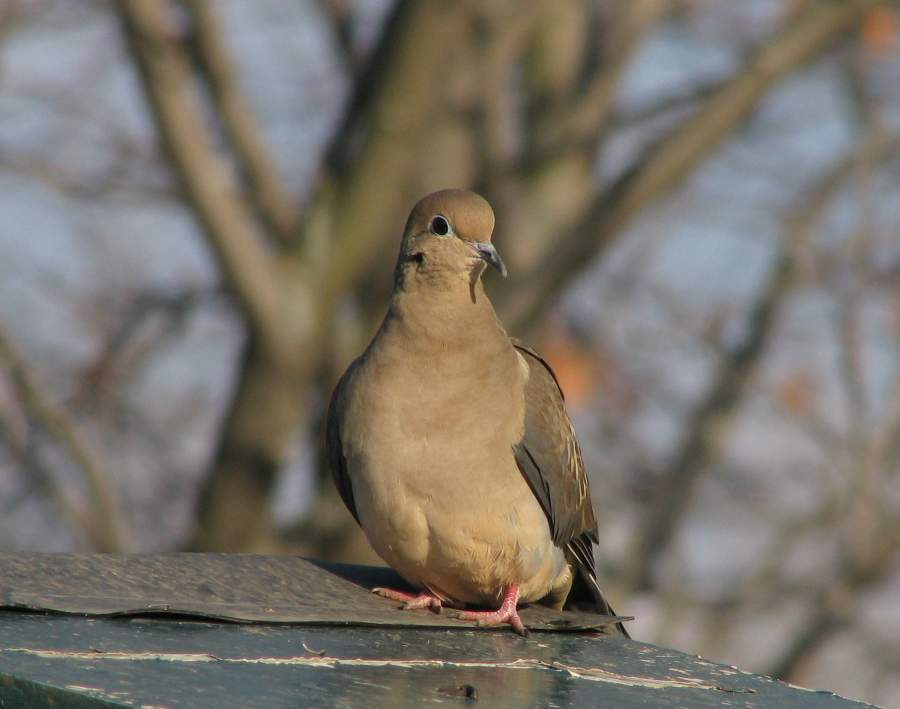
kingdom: Animalia
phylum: Chordata
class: Aves
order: Columbiformes
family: Columbidae
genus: Zenaida
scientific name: Zenaida macroura
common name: Mourning dove
